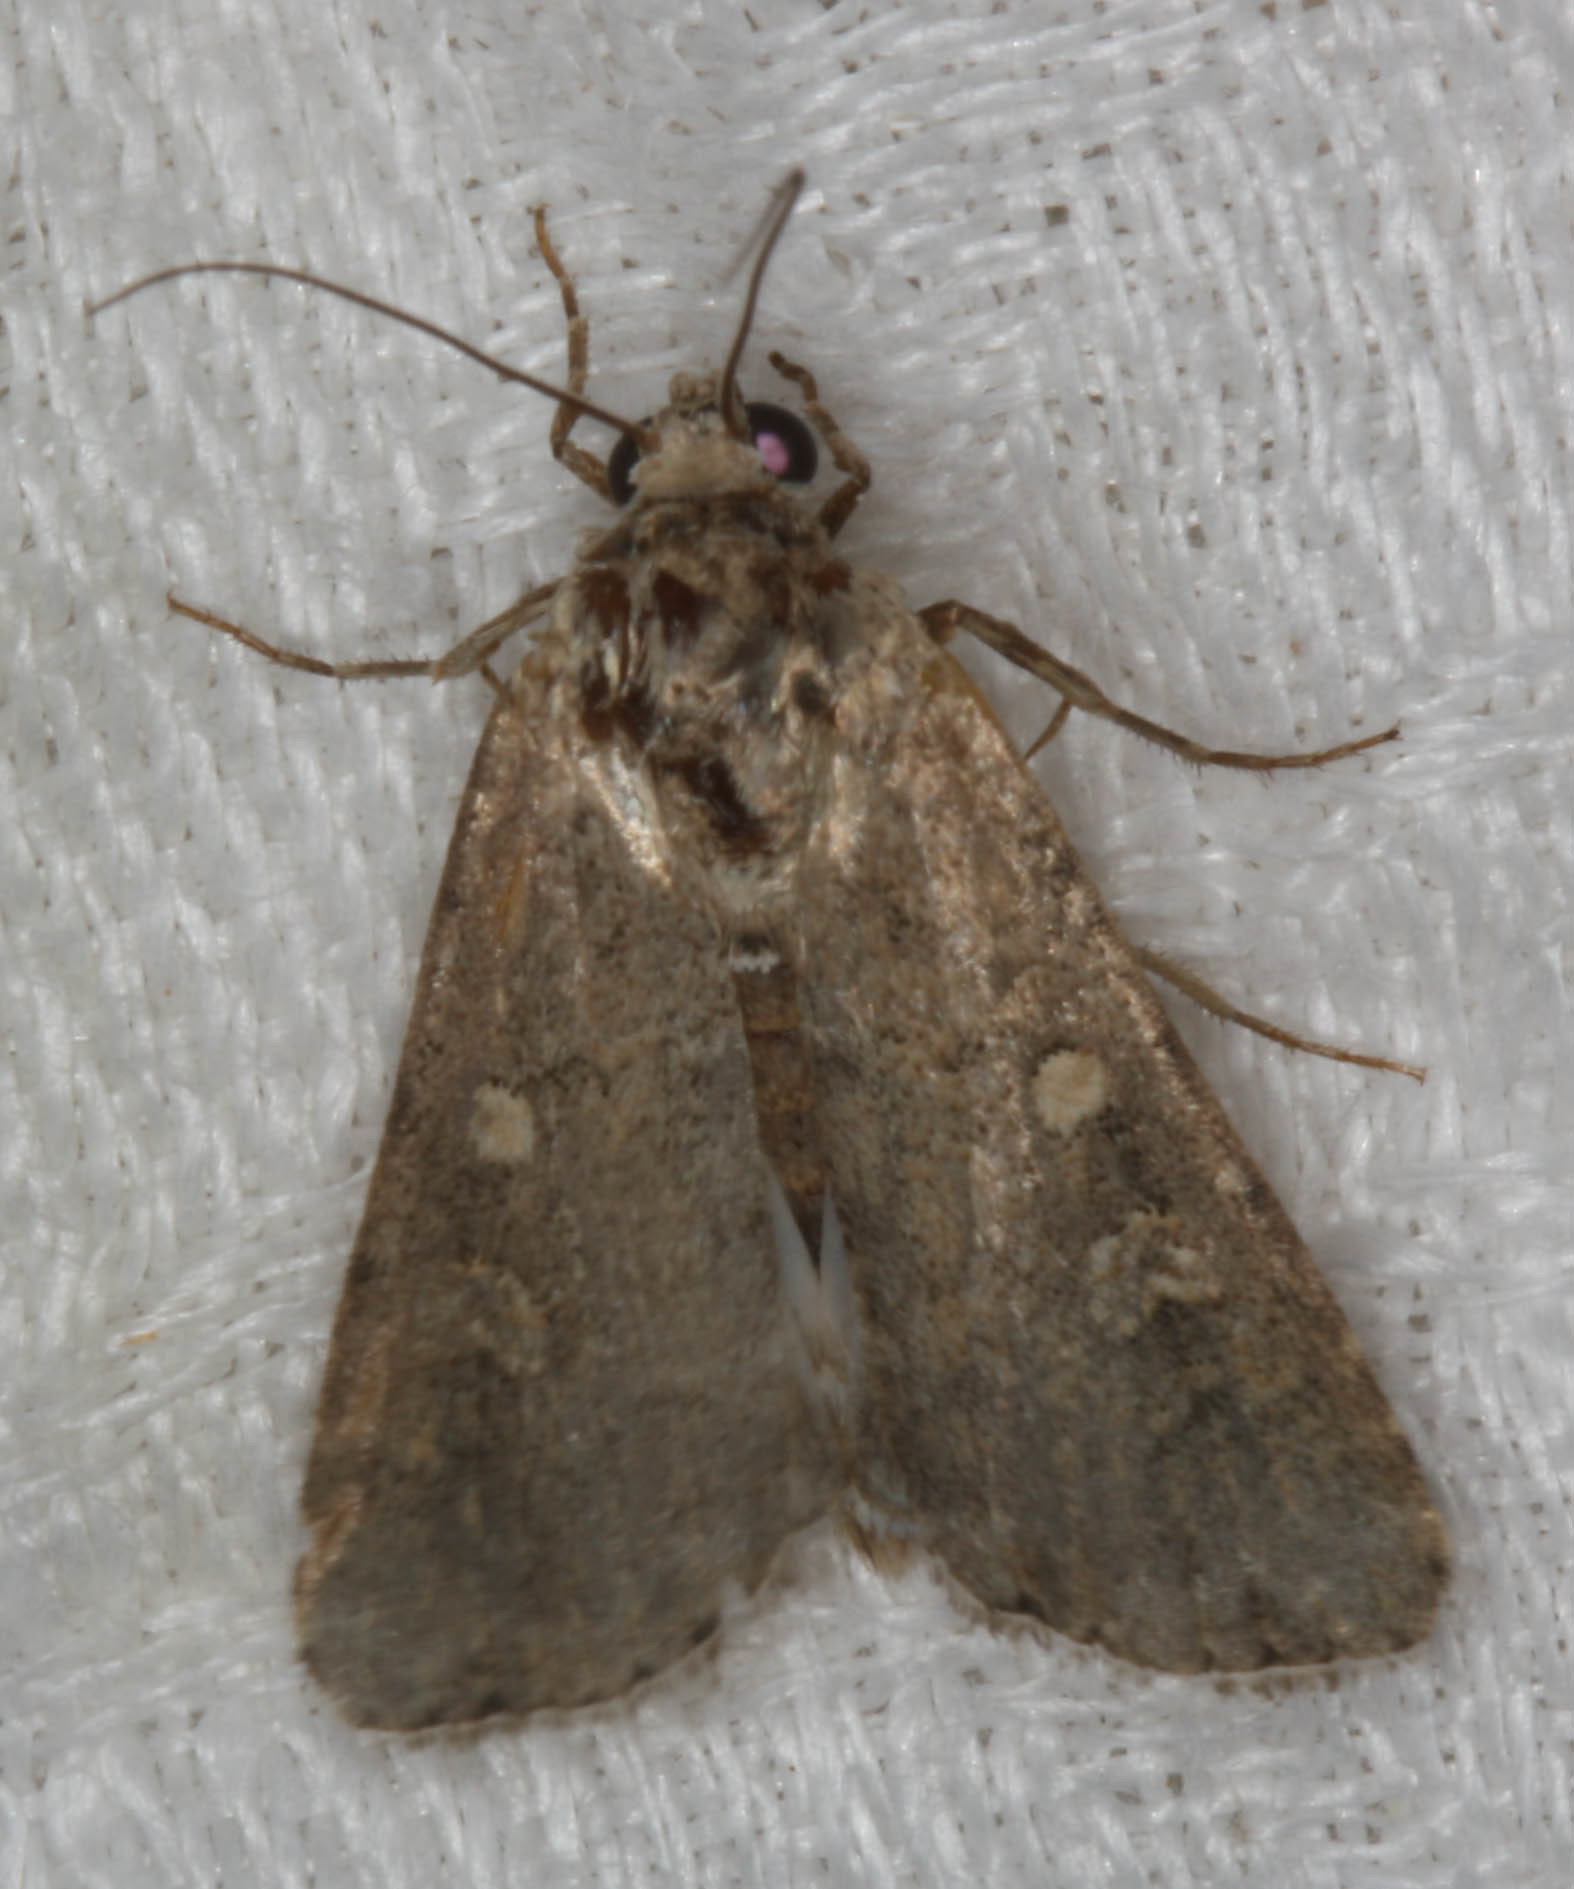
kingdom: Animalia
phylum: Arthropoda
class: Insecta
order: Lepidoptera
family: Noctuidae
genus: Spodoptera
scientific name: Spodoptera exigua
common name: Beet armyworm
